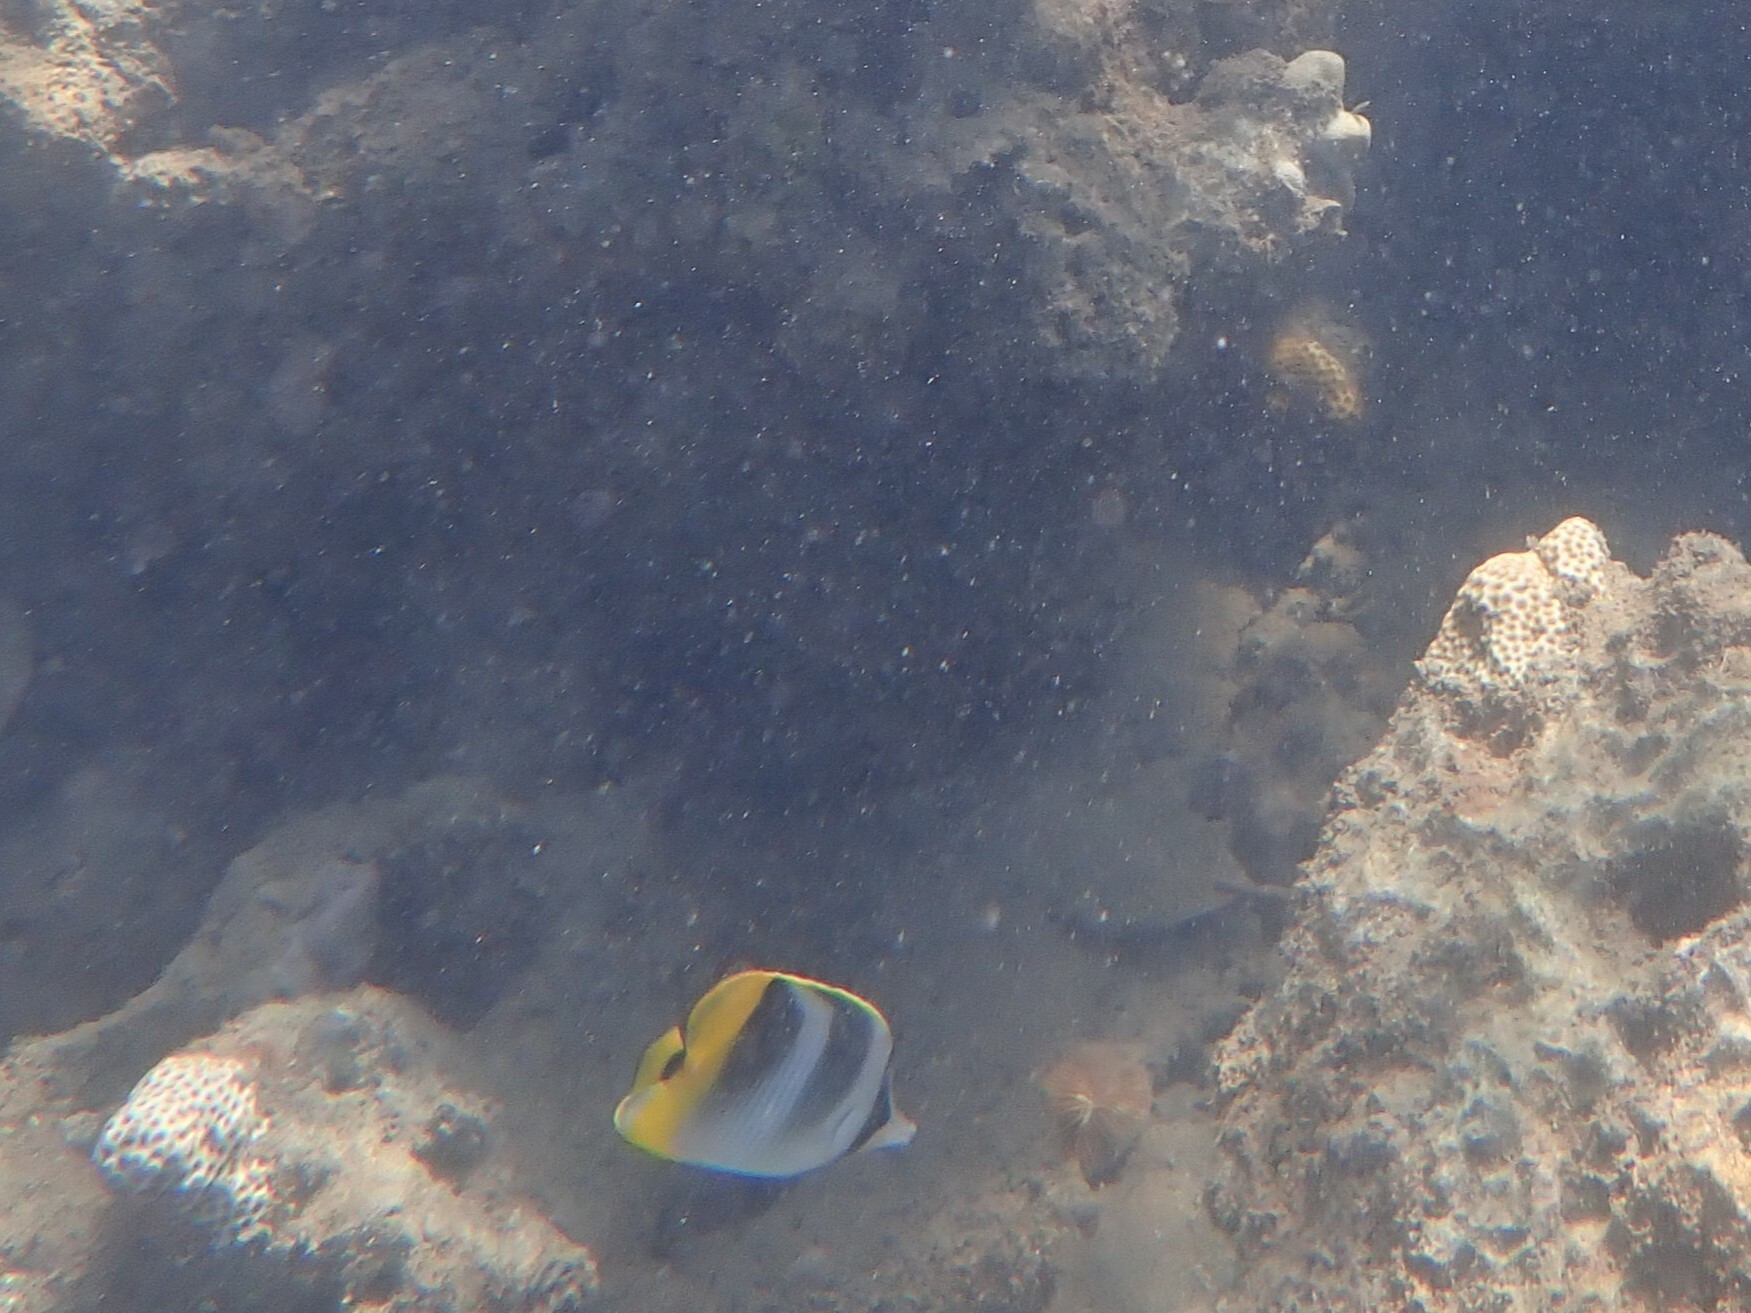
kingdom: Animalia
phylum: Chordata
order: Perciformes
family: Chaetodontidae
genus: Chaetodon
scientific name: Chaetodon ulietensis
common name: Pacific double-saddle butterflyfish
